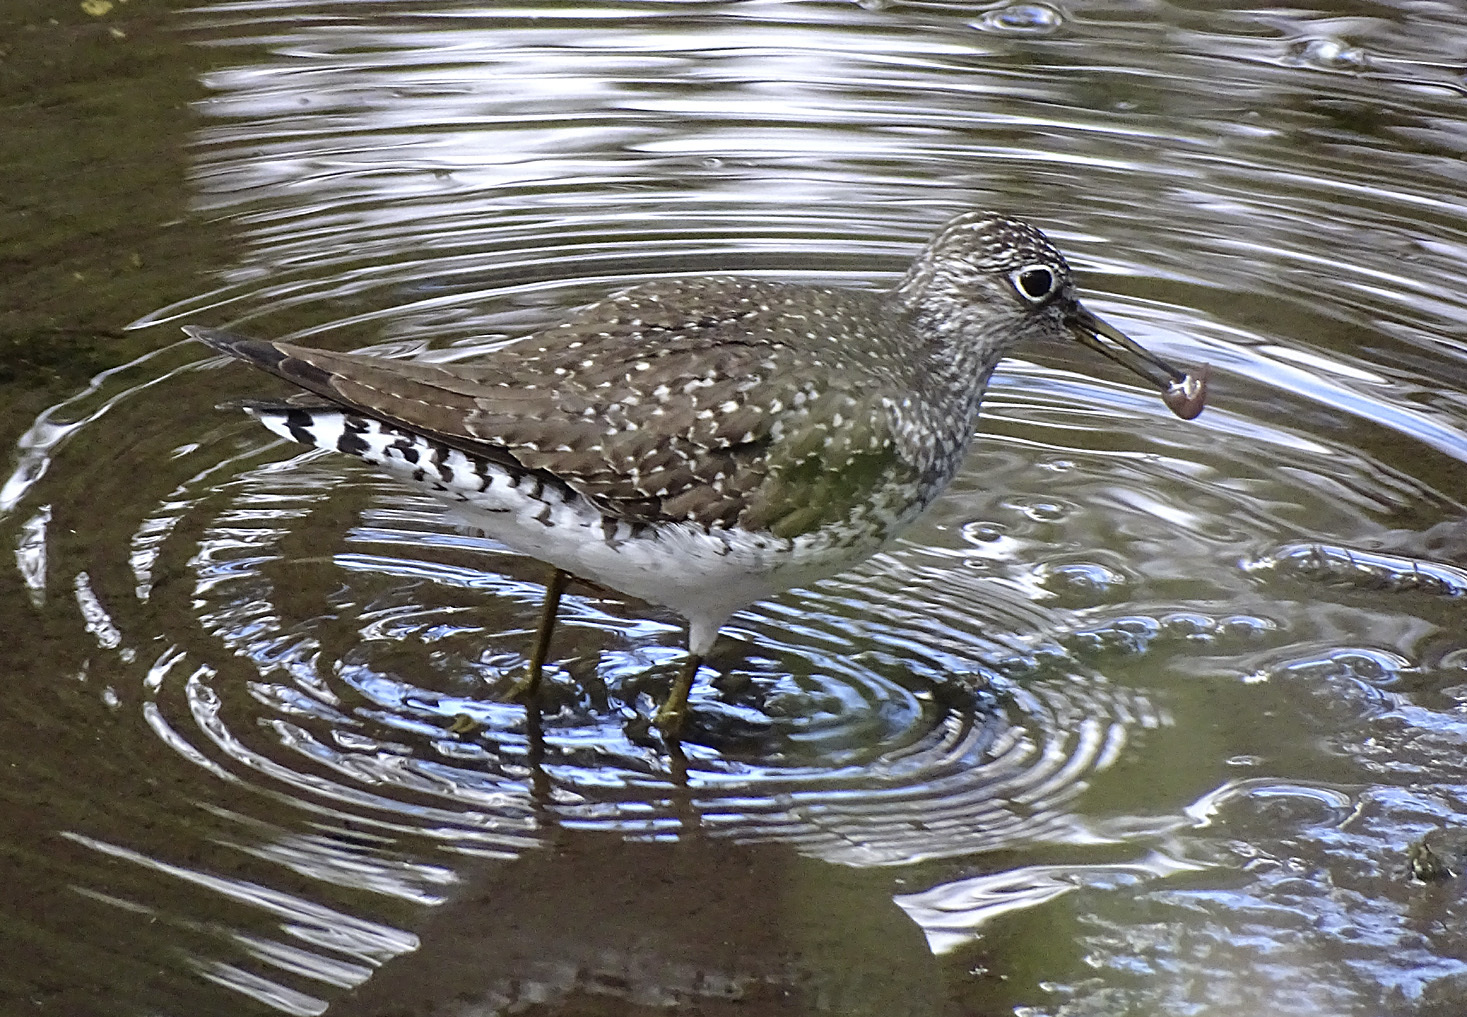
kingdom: Animalia
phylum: Chordata
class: Aves
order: Charadriiformes
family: Scolopacidae
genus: Tringa
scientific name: Tringa solitaria
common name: Solitary sandpiper
